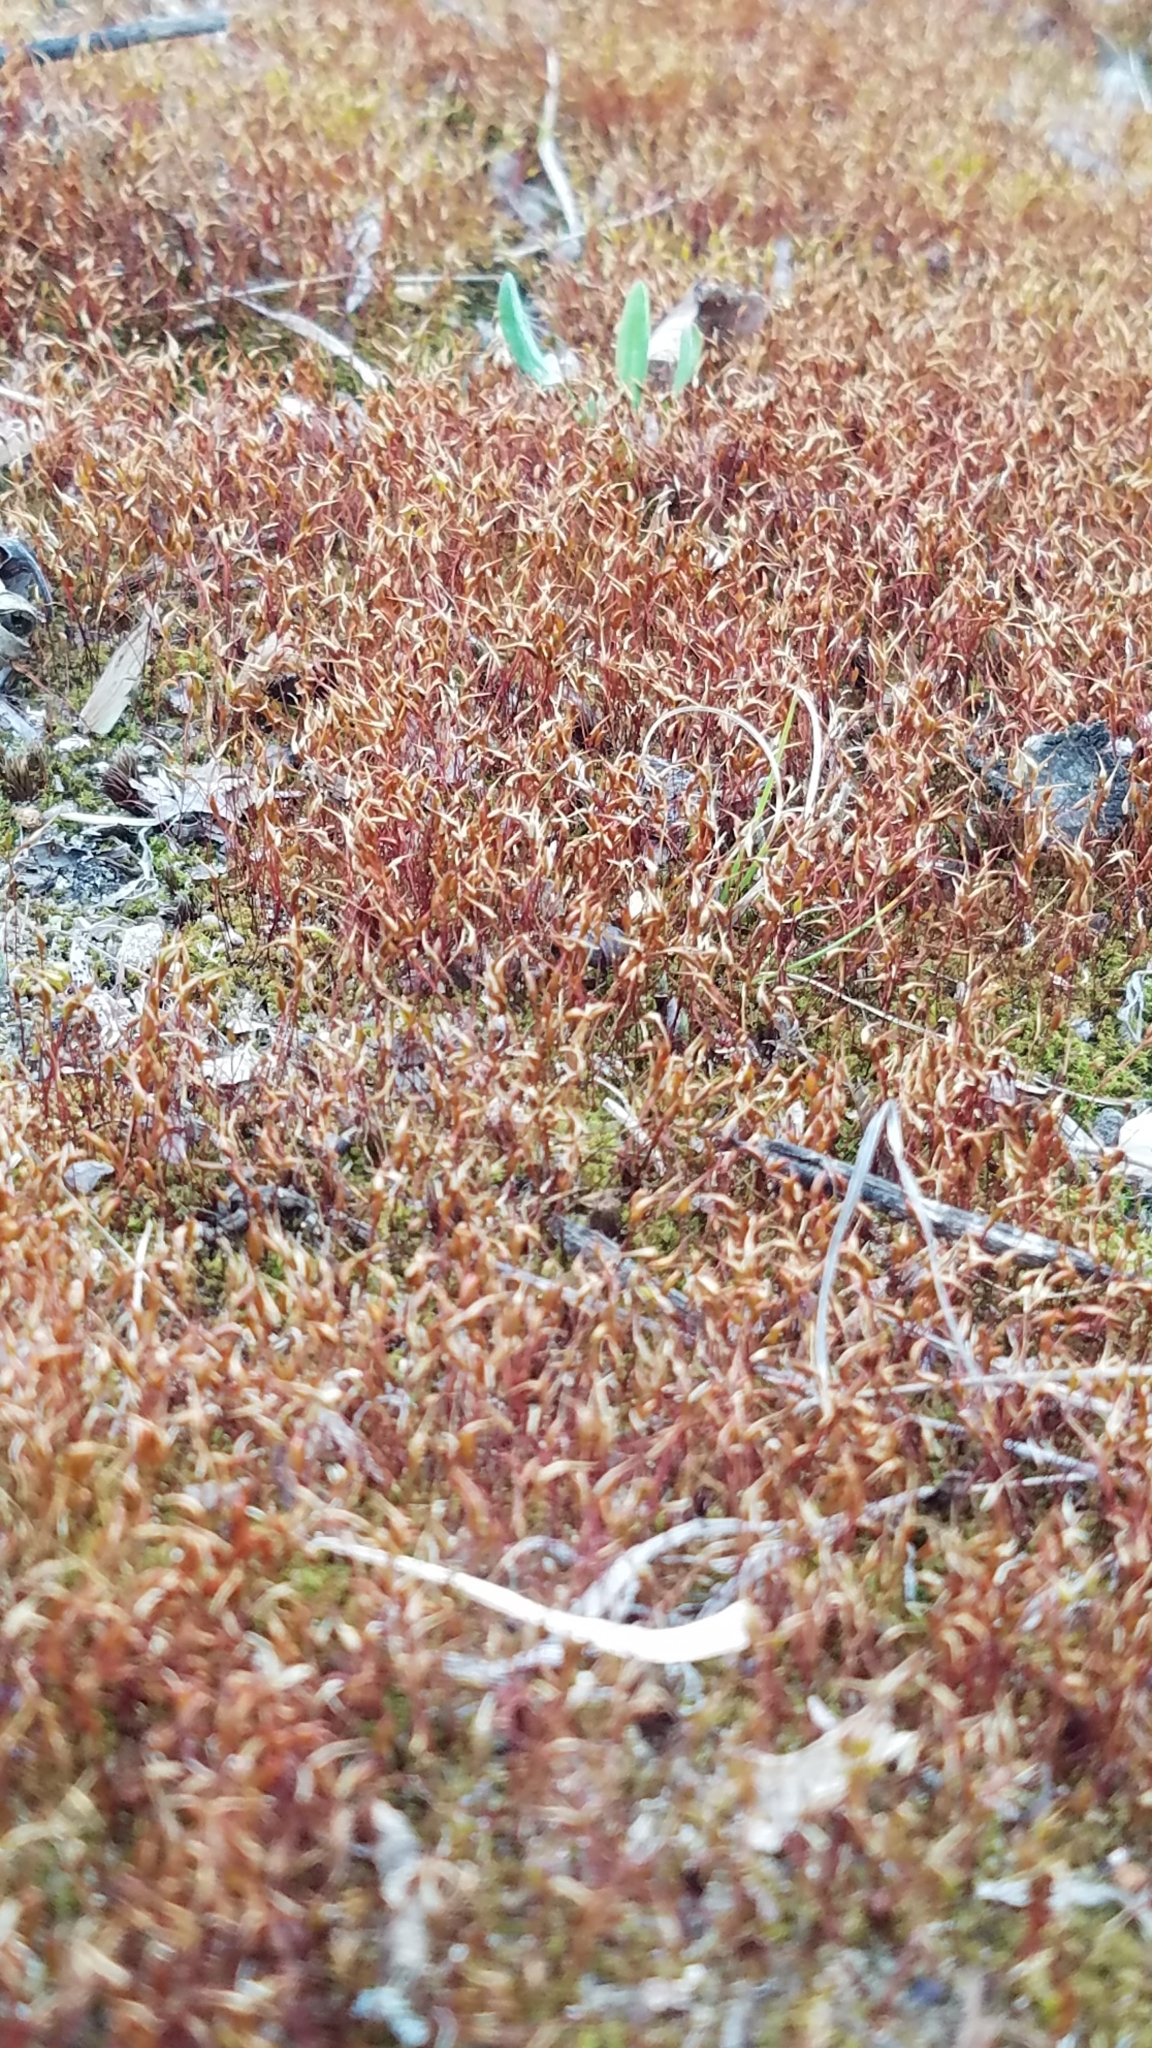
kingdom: Plantae
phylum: Bryophyta
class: Bryopsida
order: Dicranales
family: Ditrichaceae
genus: Ceratodon
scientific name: Ceratodon purpureus
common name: Redshank
